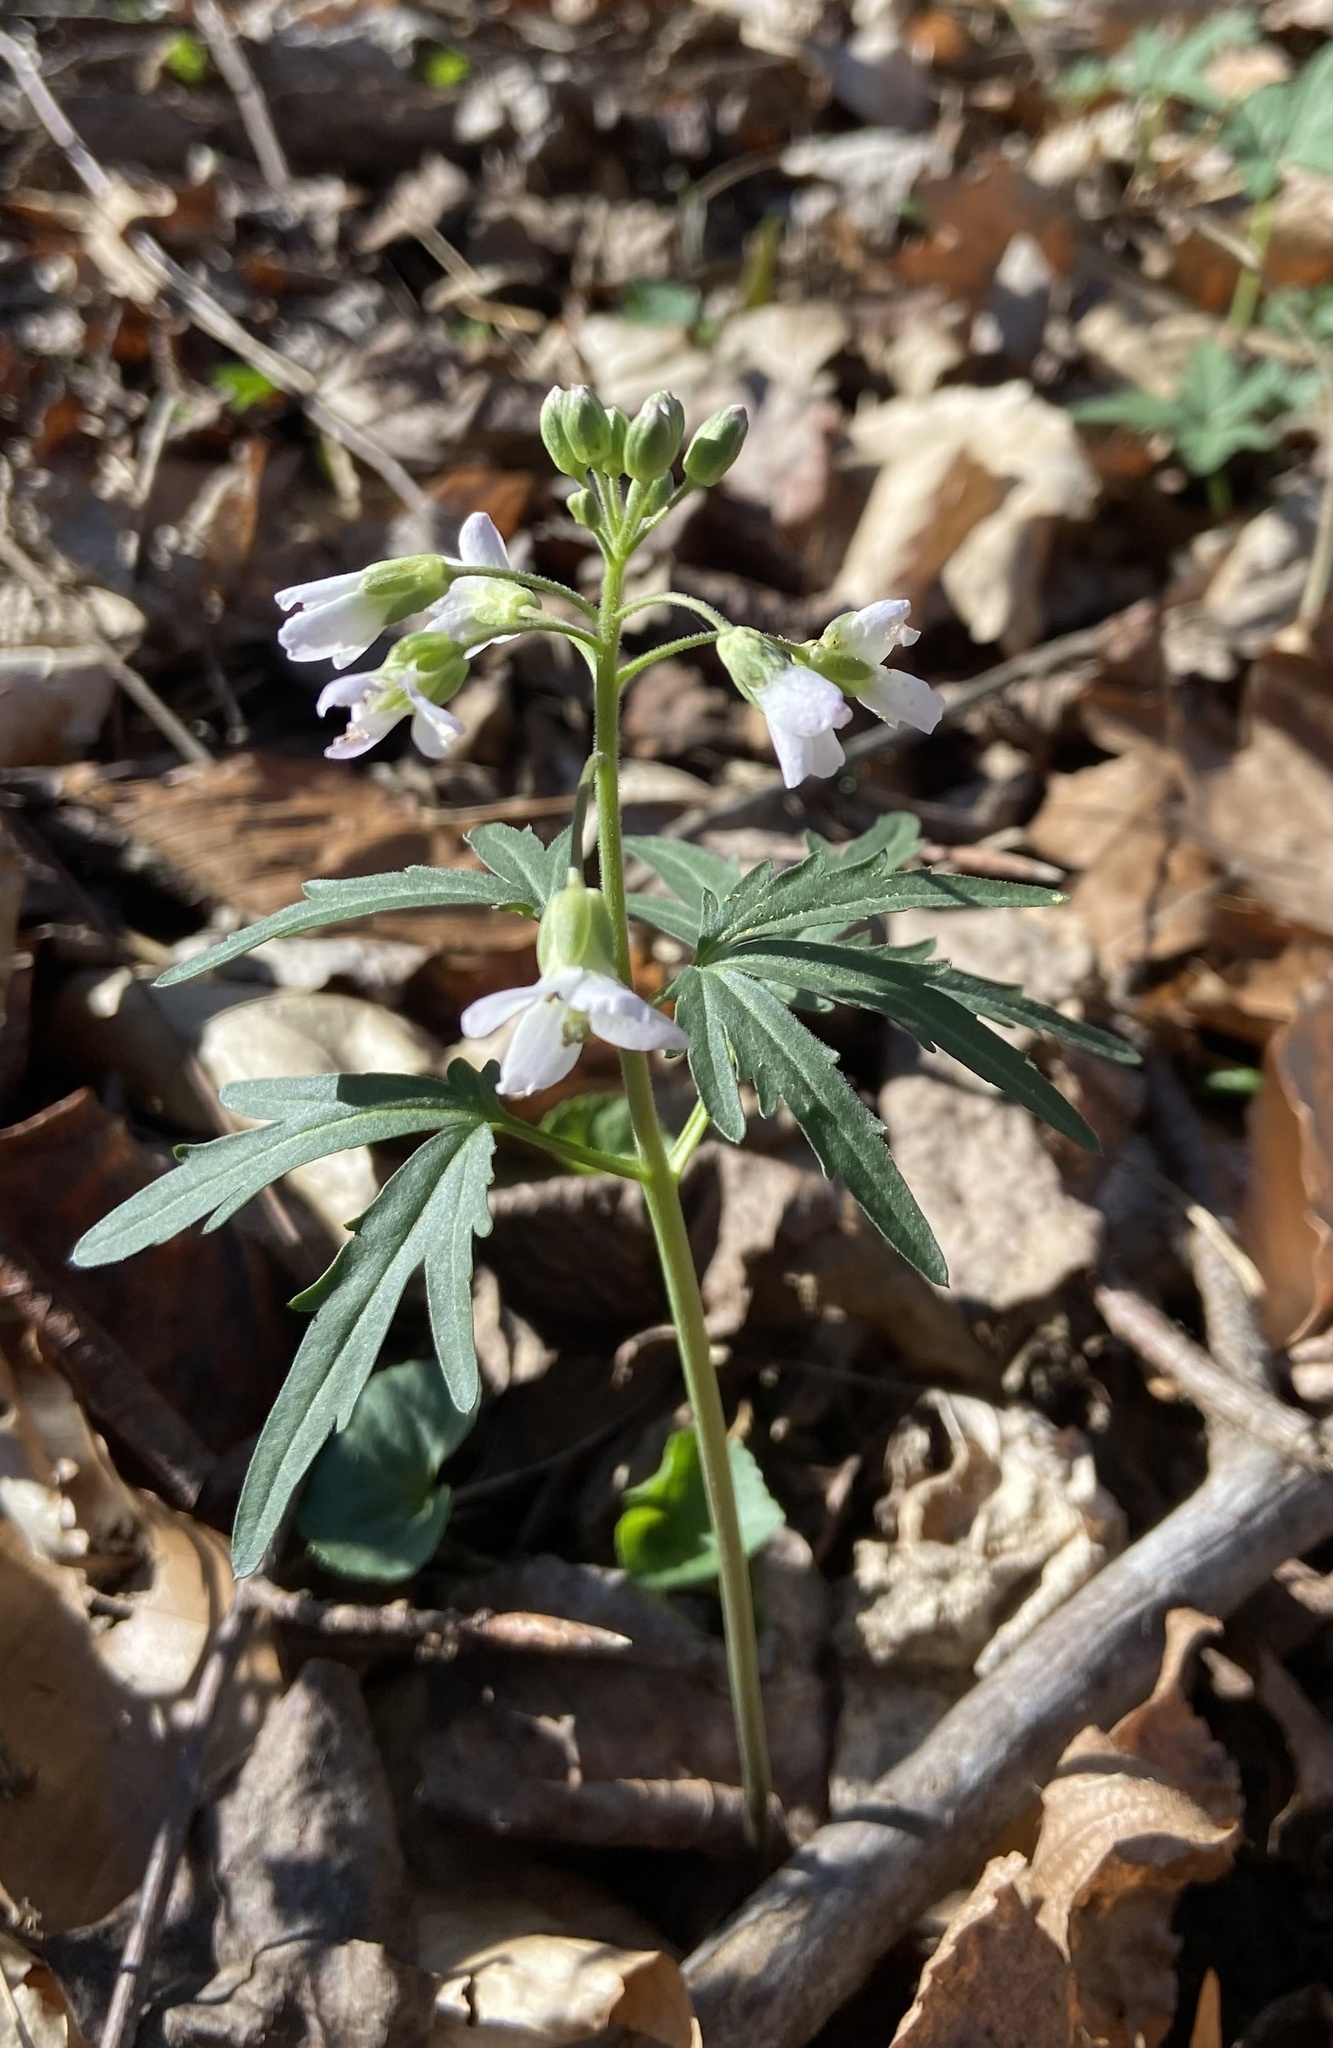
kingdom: Plantae
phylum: Tracheophyta
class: Magnoliopsida
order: Brassicales
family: Brassicaceae
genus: Cardamine
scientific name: Cardamine concatenata
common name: Cut-leaf toothcup
